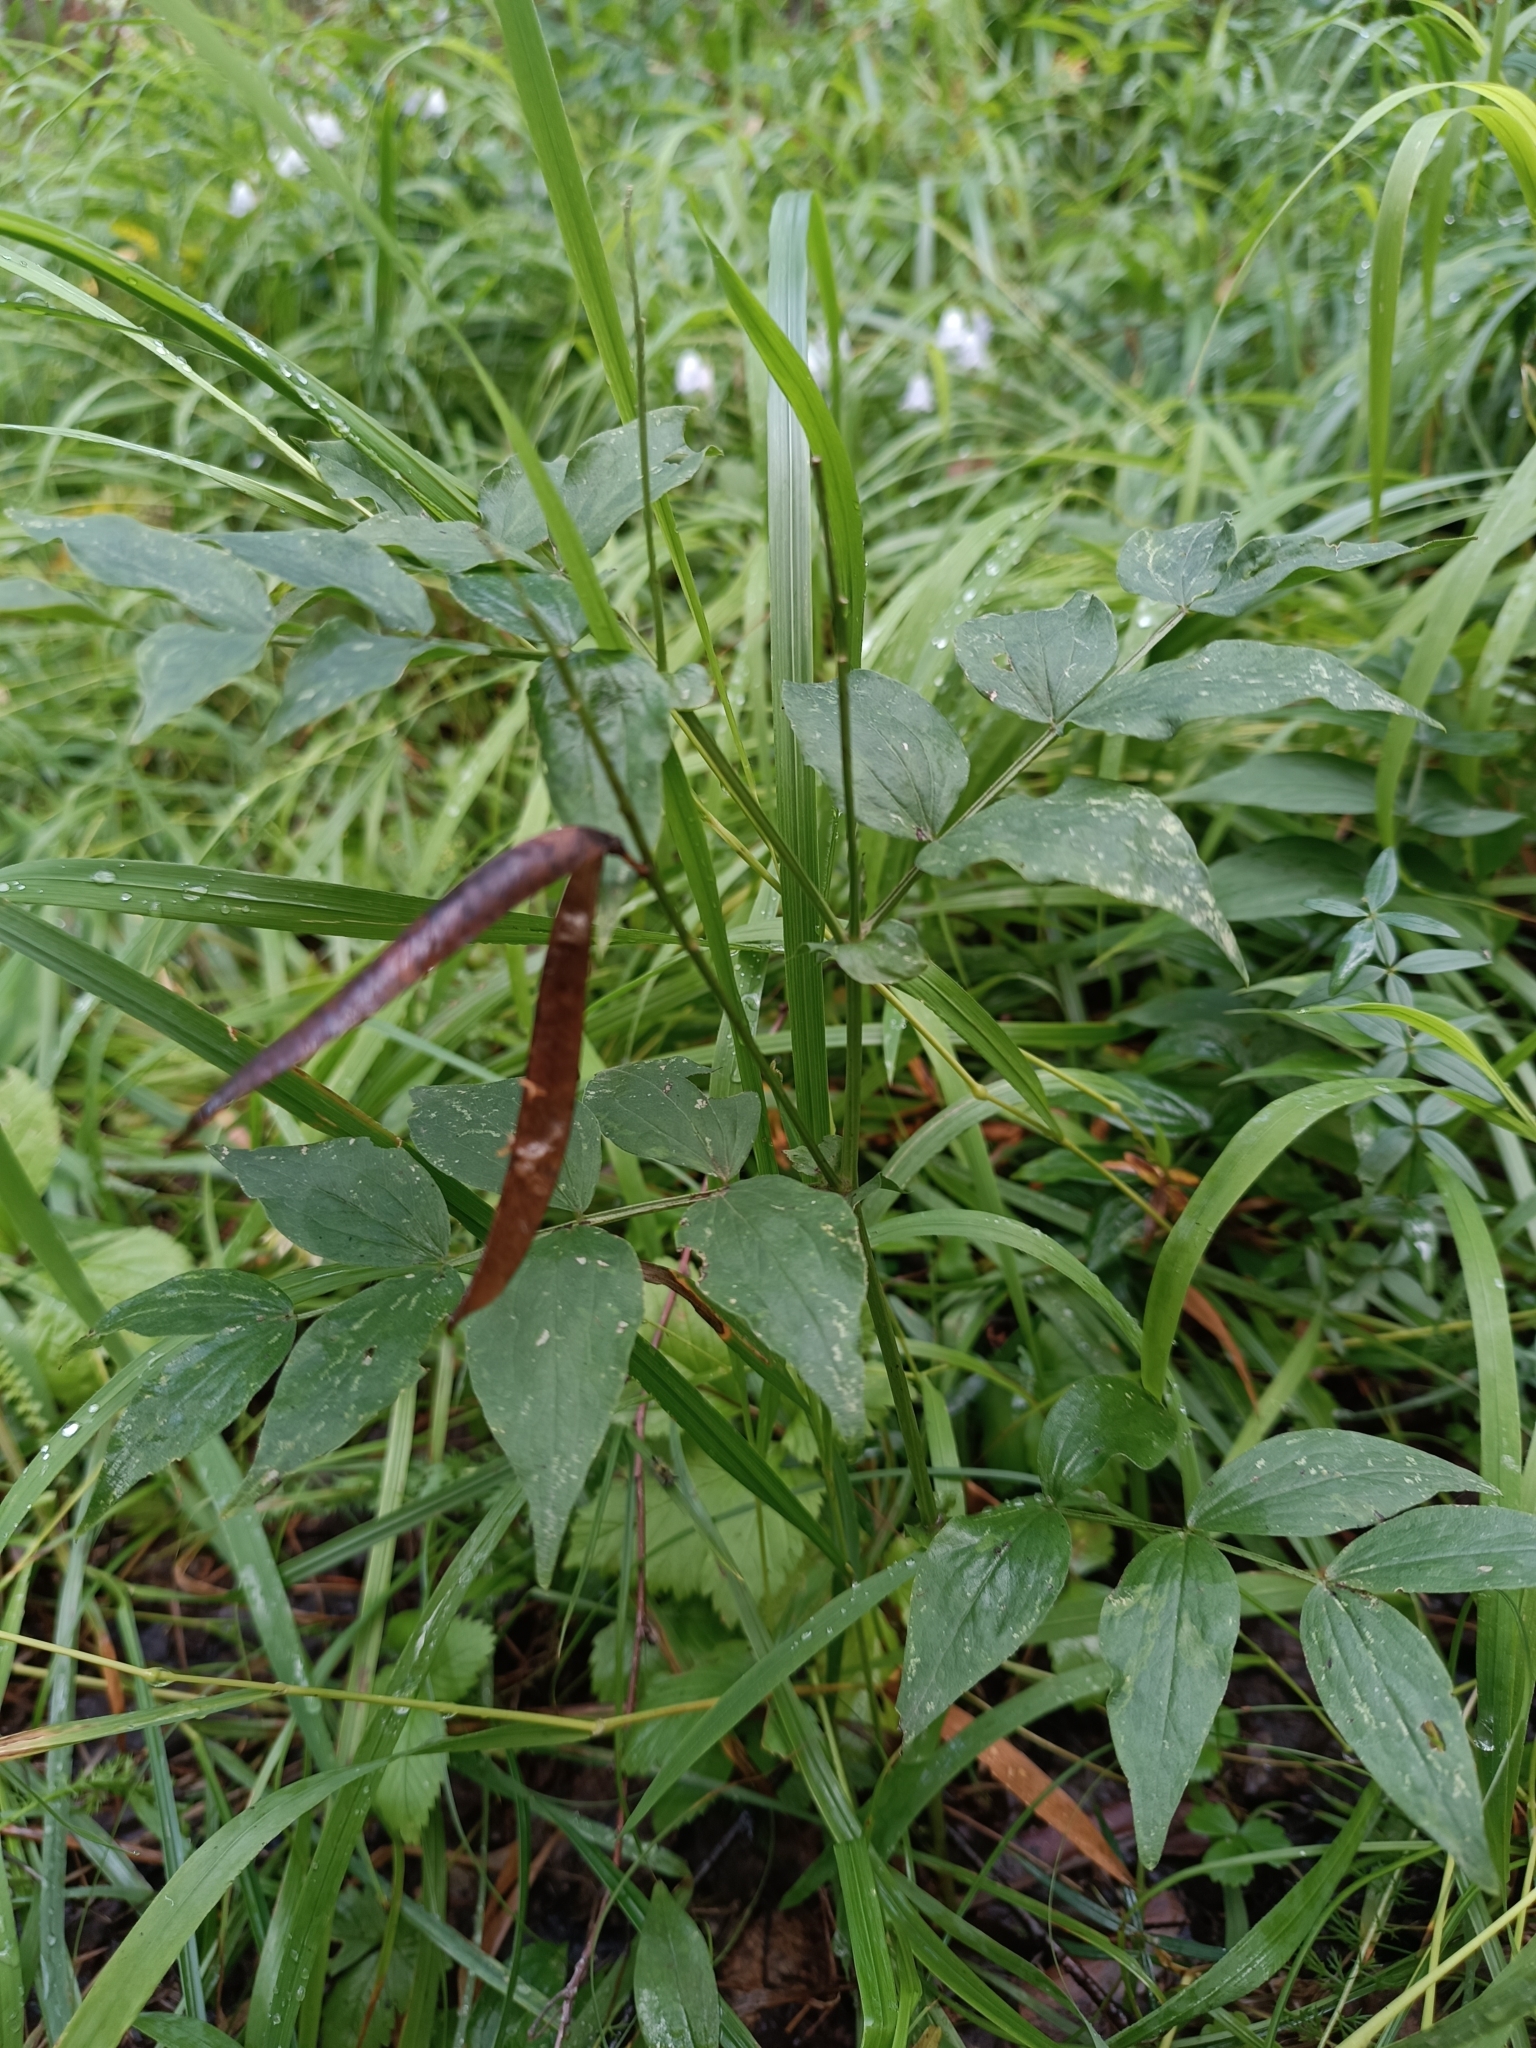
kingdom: Plantae
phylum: Tracheophyta
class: Magnoliopsida
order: Fabales
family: Fabaceae
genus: Lathyrus
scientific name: Lathyrus vernus
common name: Spring pea
